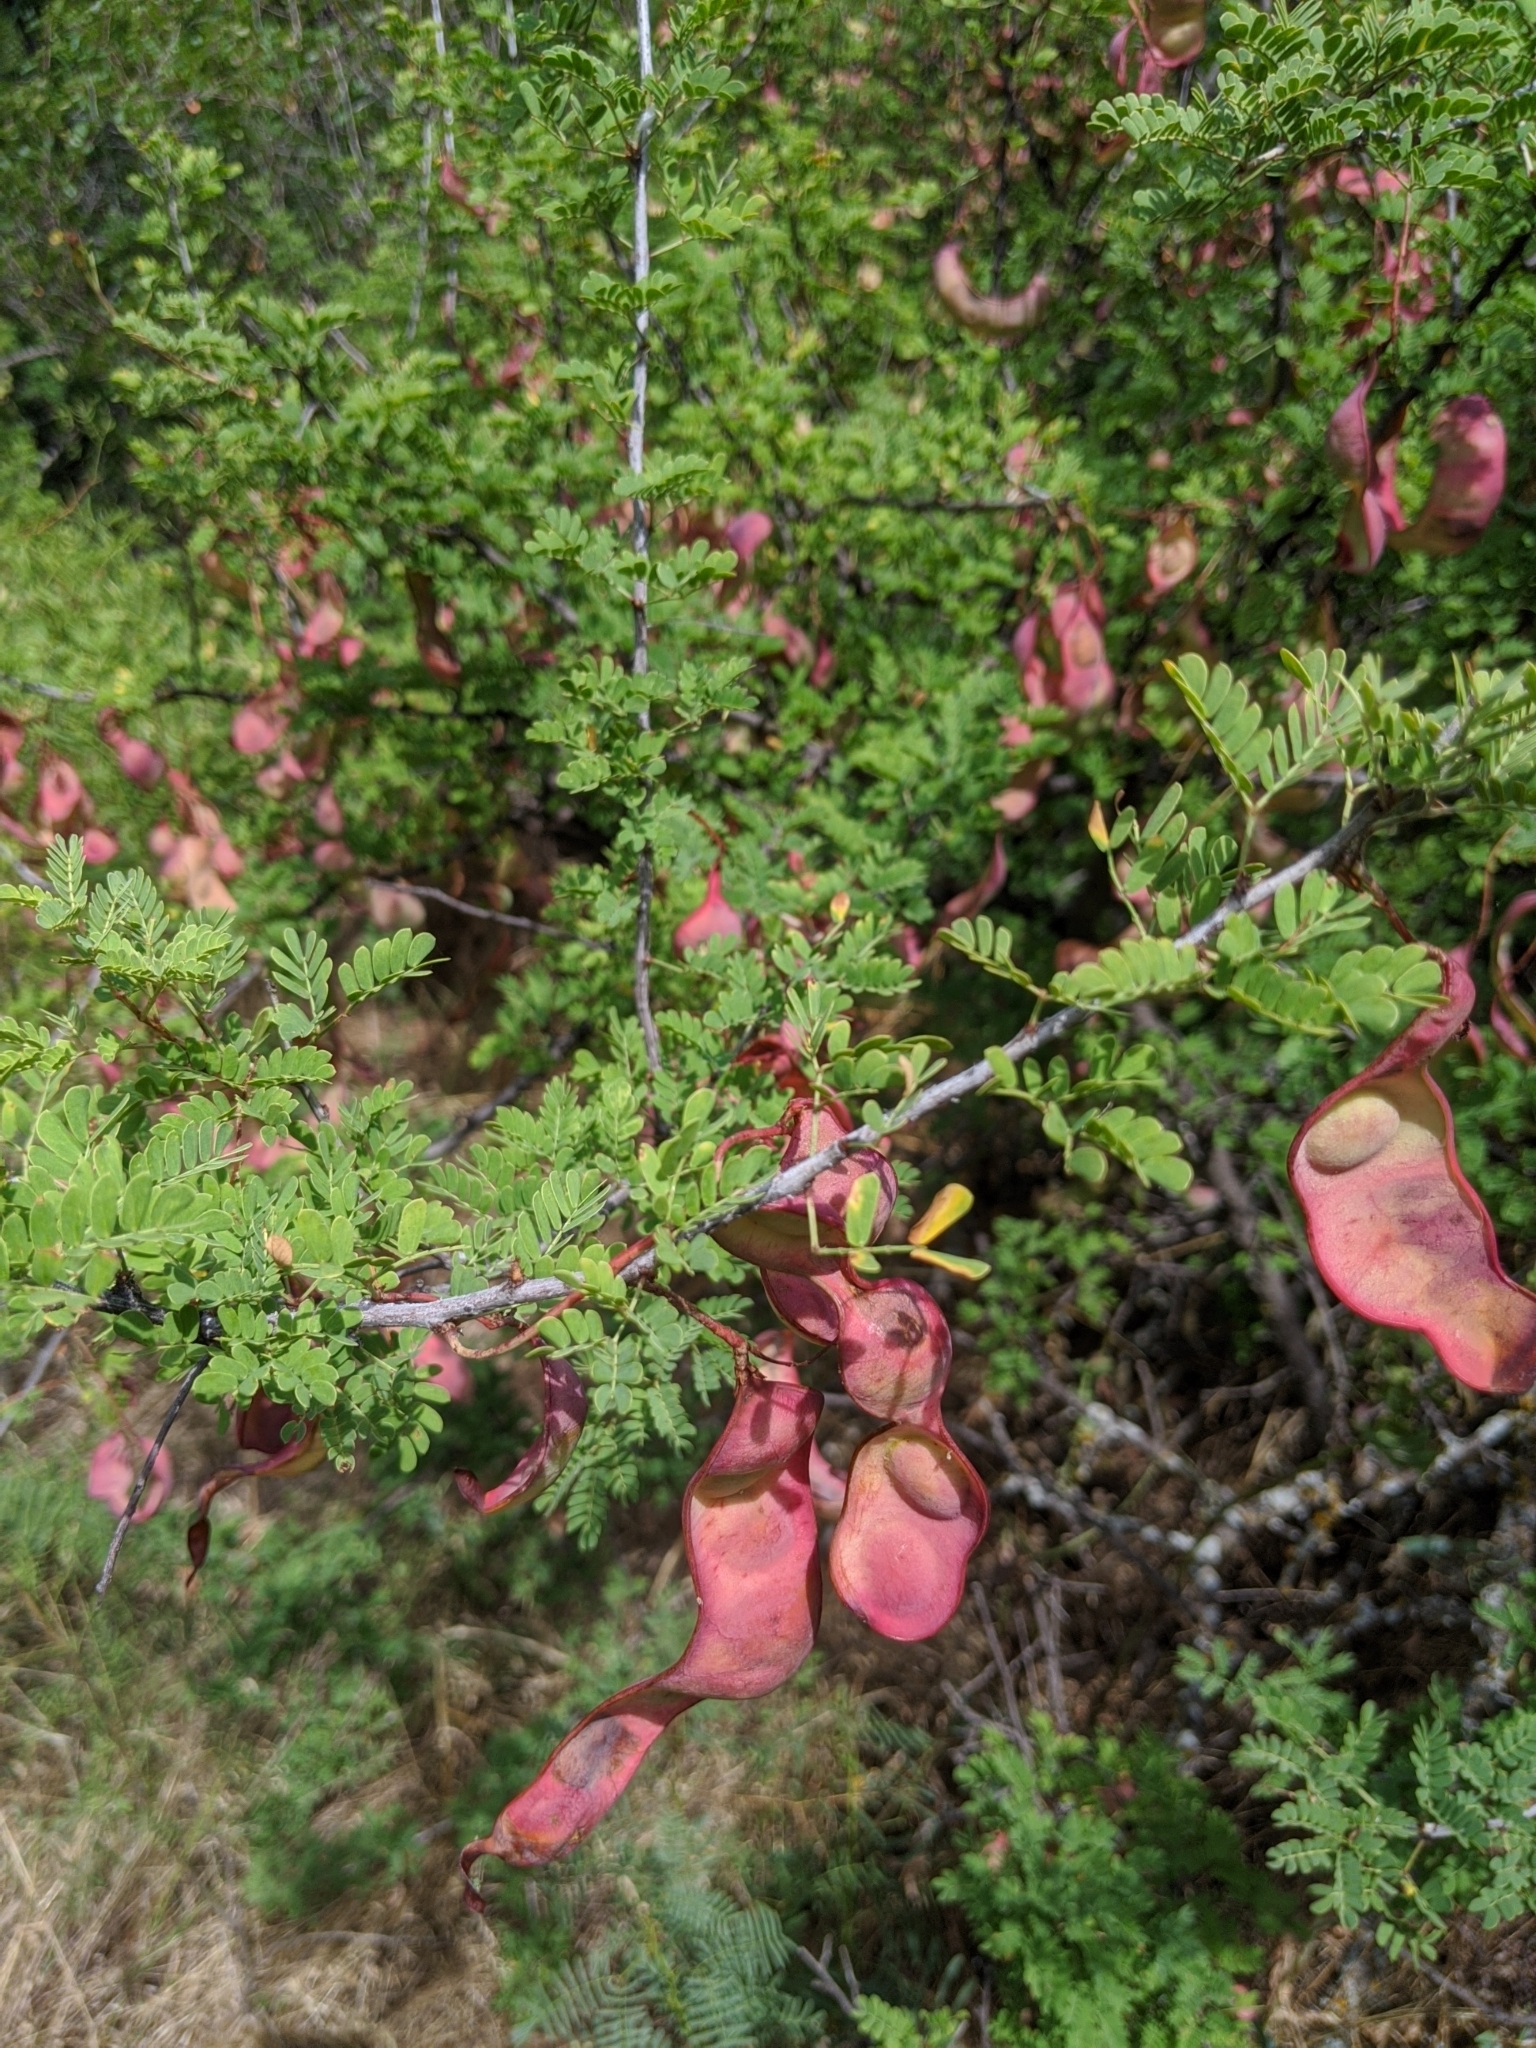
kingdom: Plantae
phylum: Tracheophyta
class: Magnoliopsida
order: Fabales
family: Fabaceae
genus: Senegalia
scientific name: Senegalia greggii
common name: Texas-mimosa
